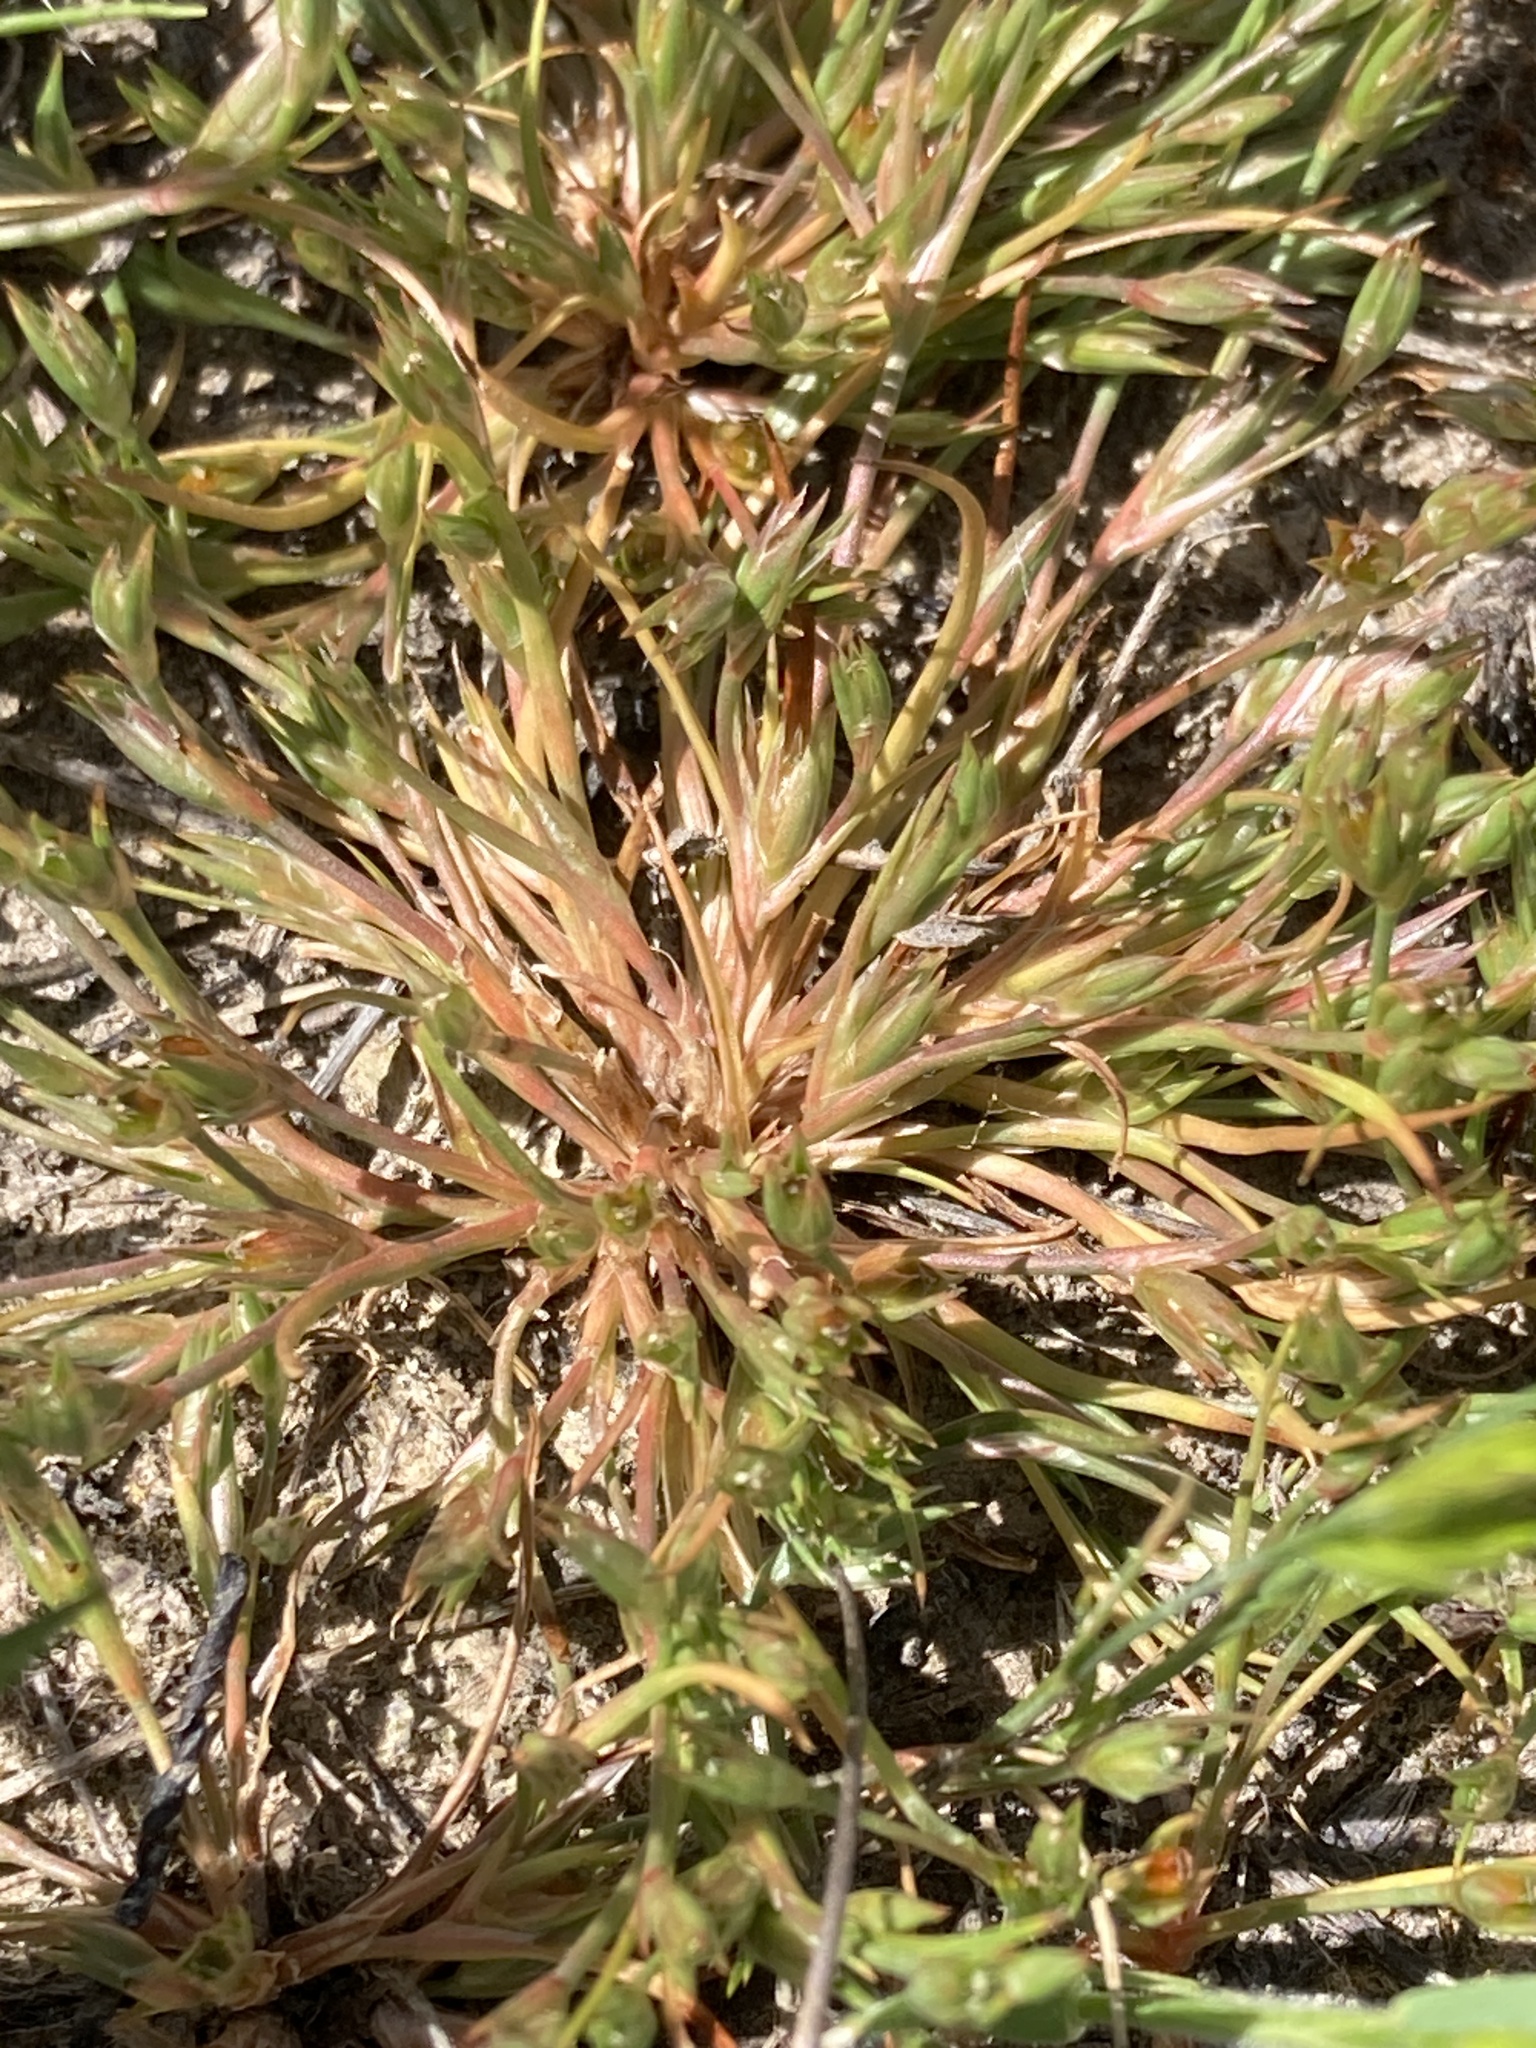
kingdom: Plantae
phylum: Tracheophyta
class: Liliopsida
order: Poales
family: Juncaceae
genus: Juncus
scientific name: Juncus bufonius
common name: Toad rush
